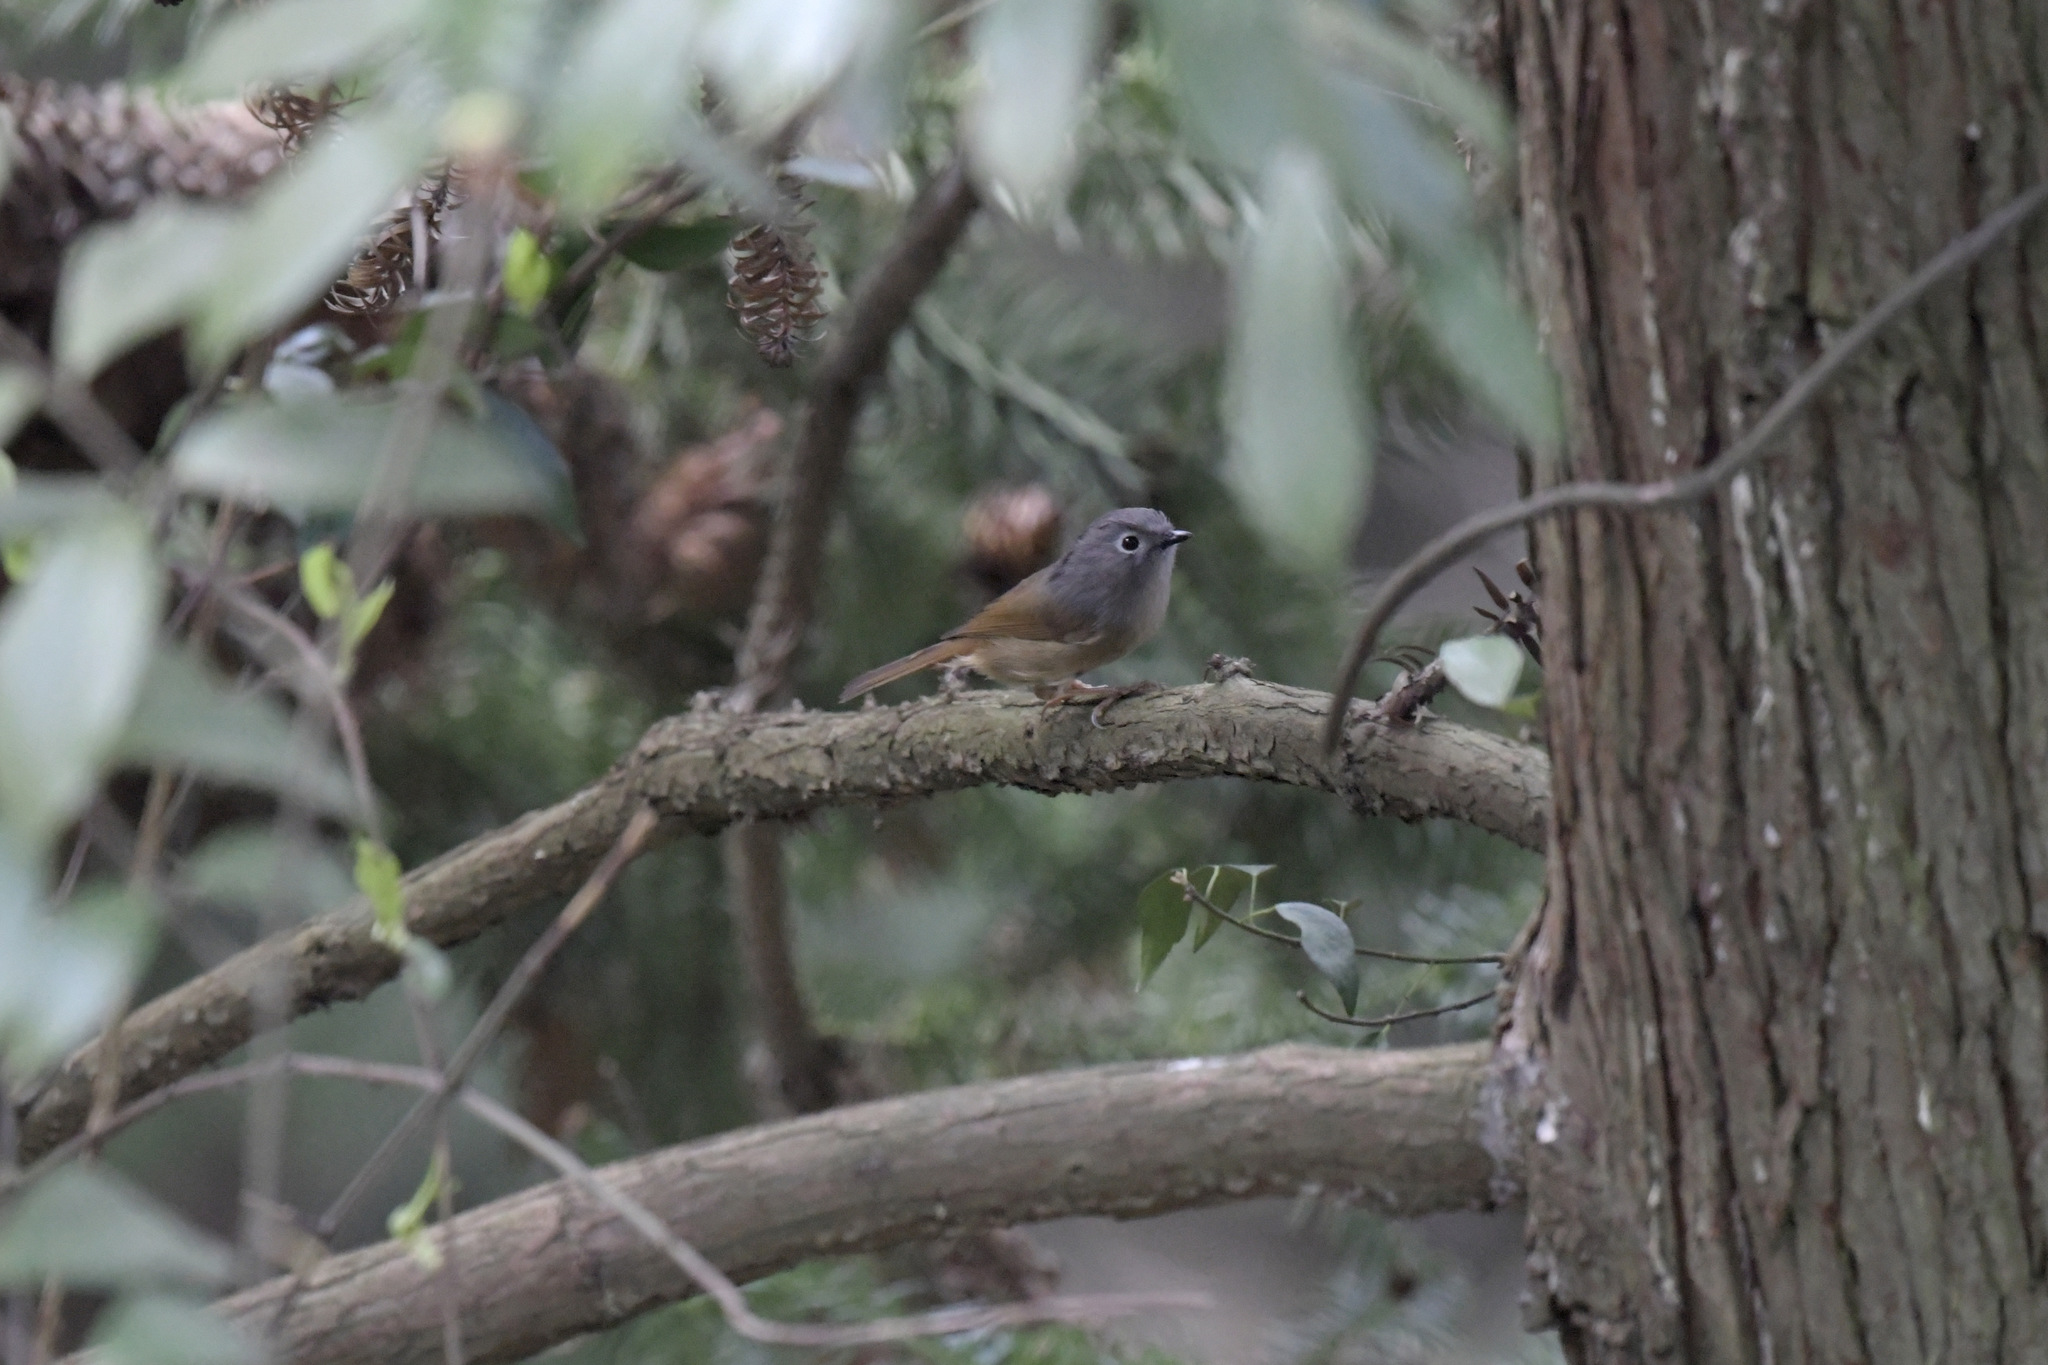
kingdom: Animalia
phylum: Chordata
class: Aves
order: Passeriformes
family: Pellorneidae
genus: Alcippe
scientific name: Alcippe hueti
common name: Huet's fulvetta
